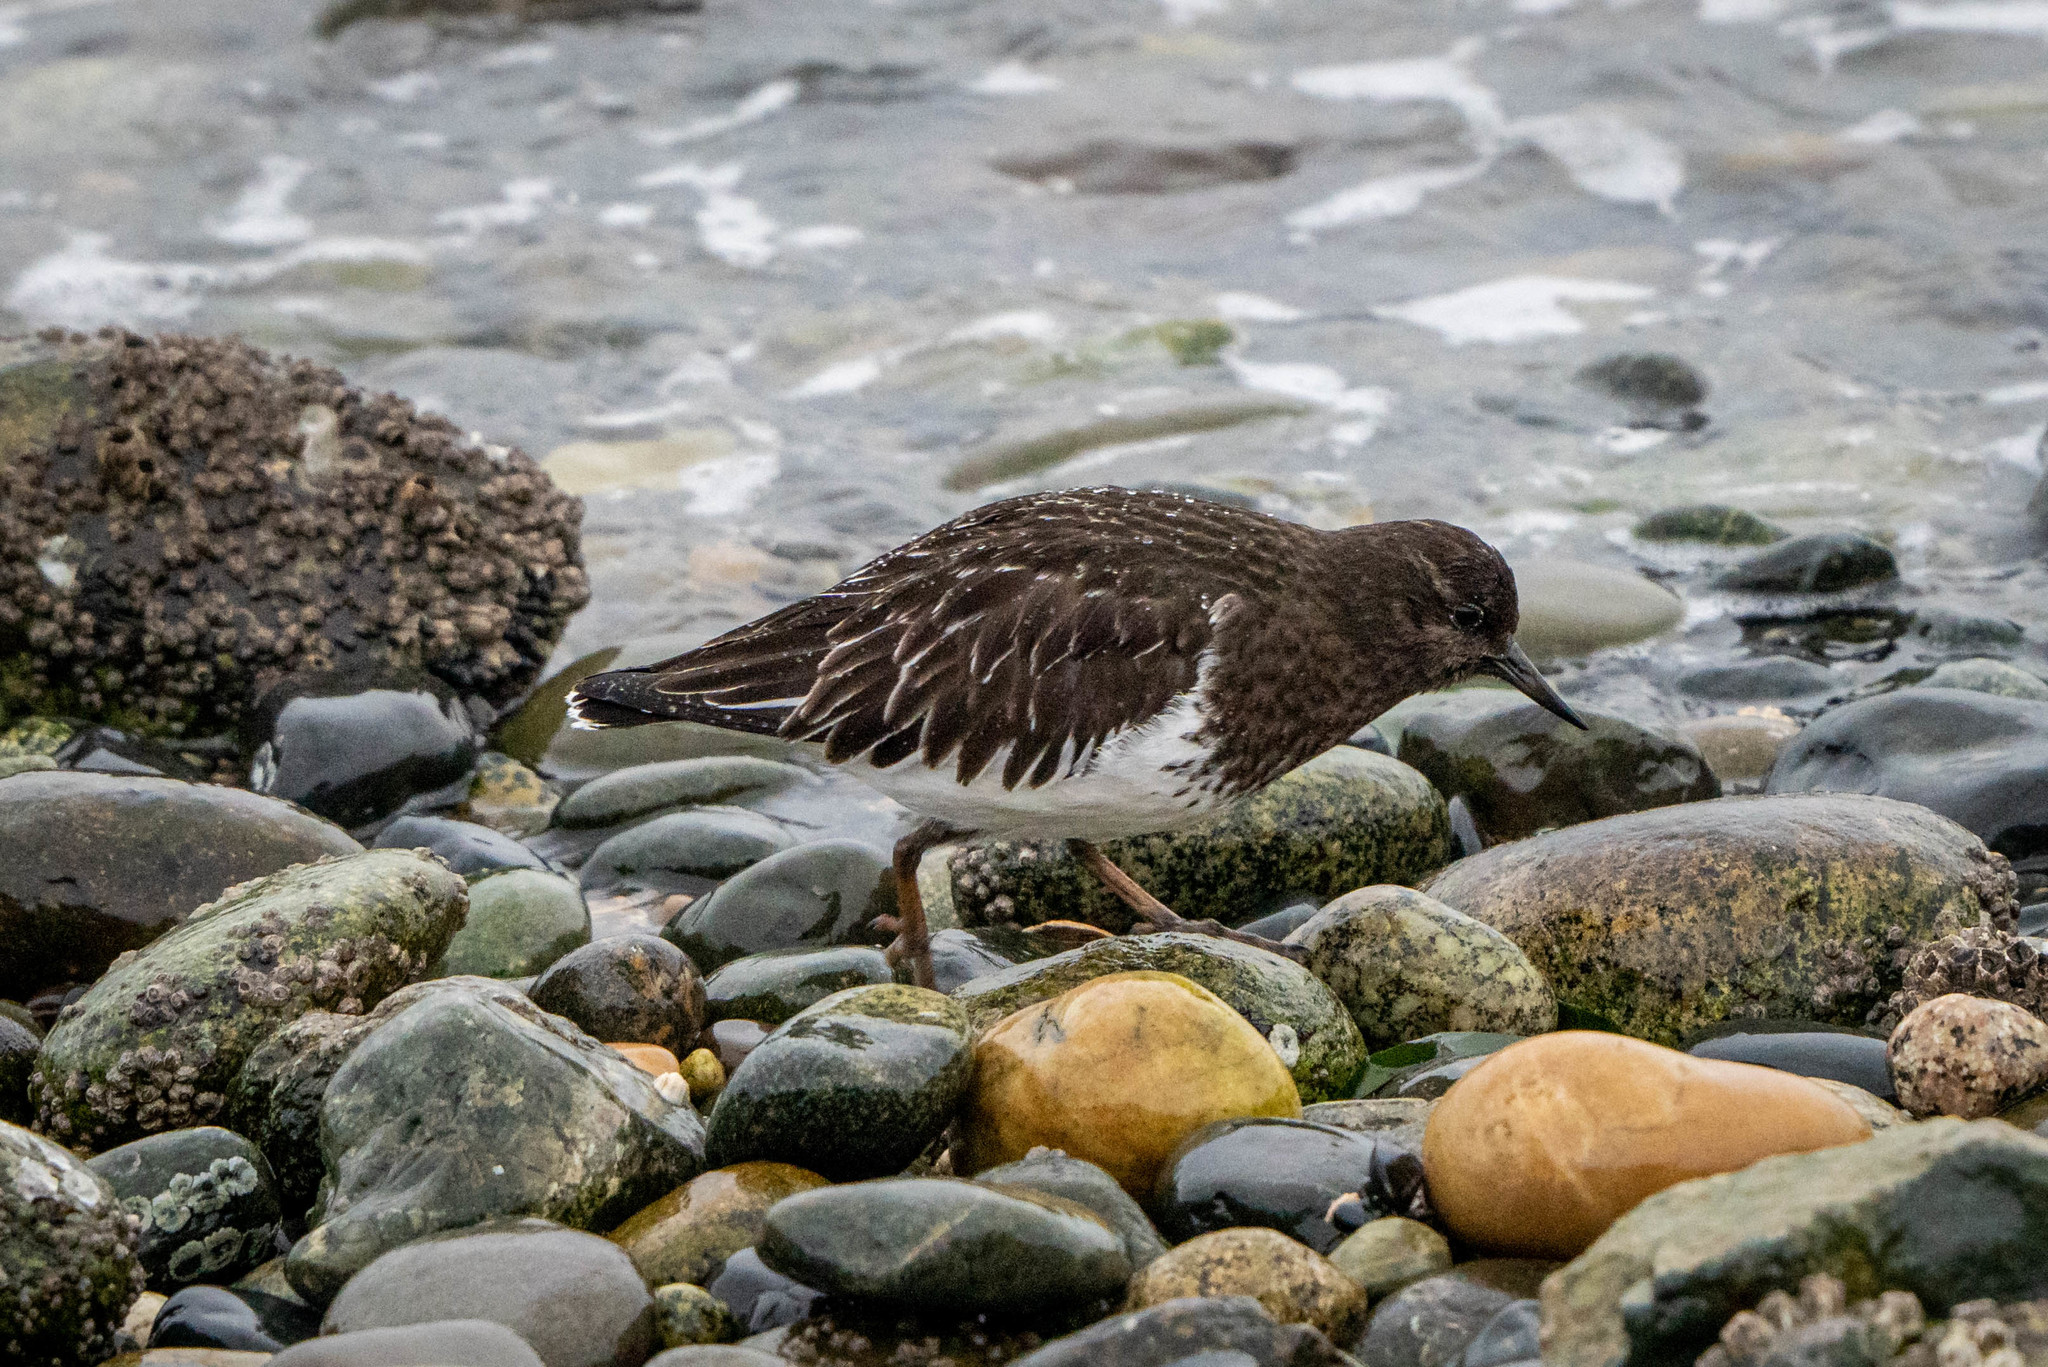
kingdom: Animalia
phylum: Chordata
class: Aves
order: Charadriiformes
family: Scolopacidae
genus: Arenaria
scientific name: Arenaria melanocephala
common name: Black turnstone
